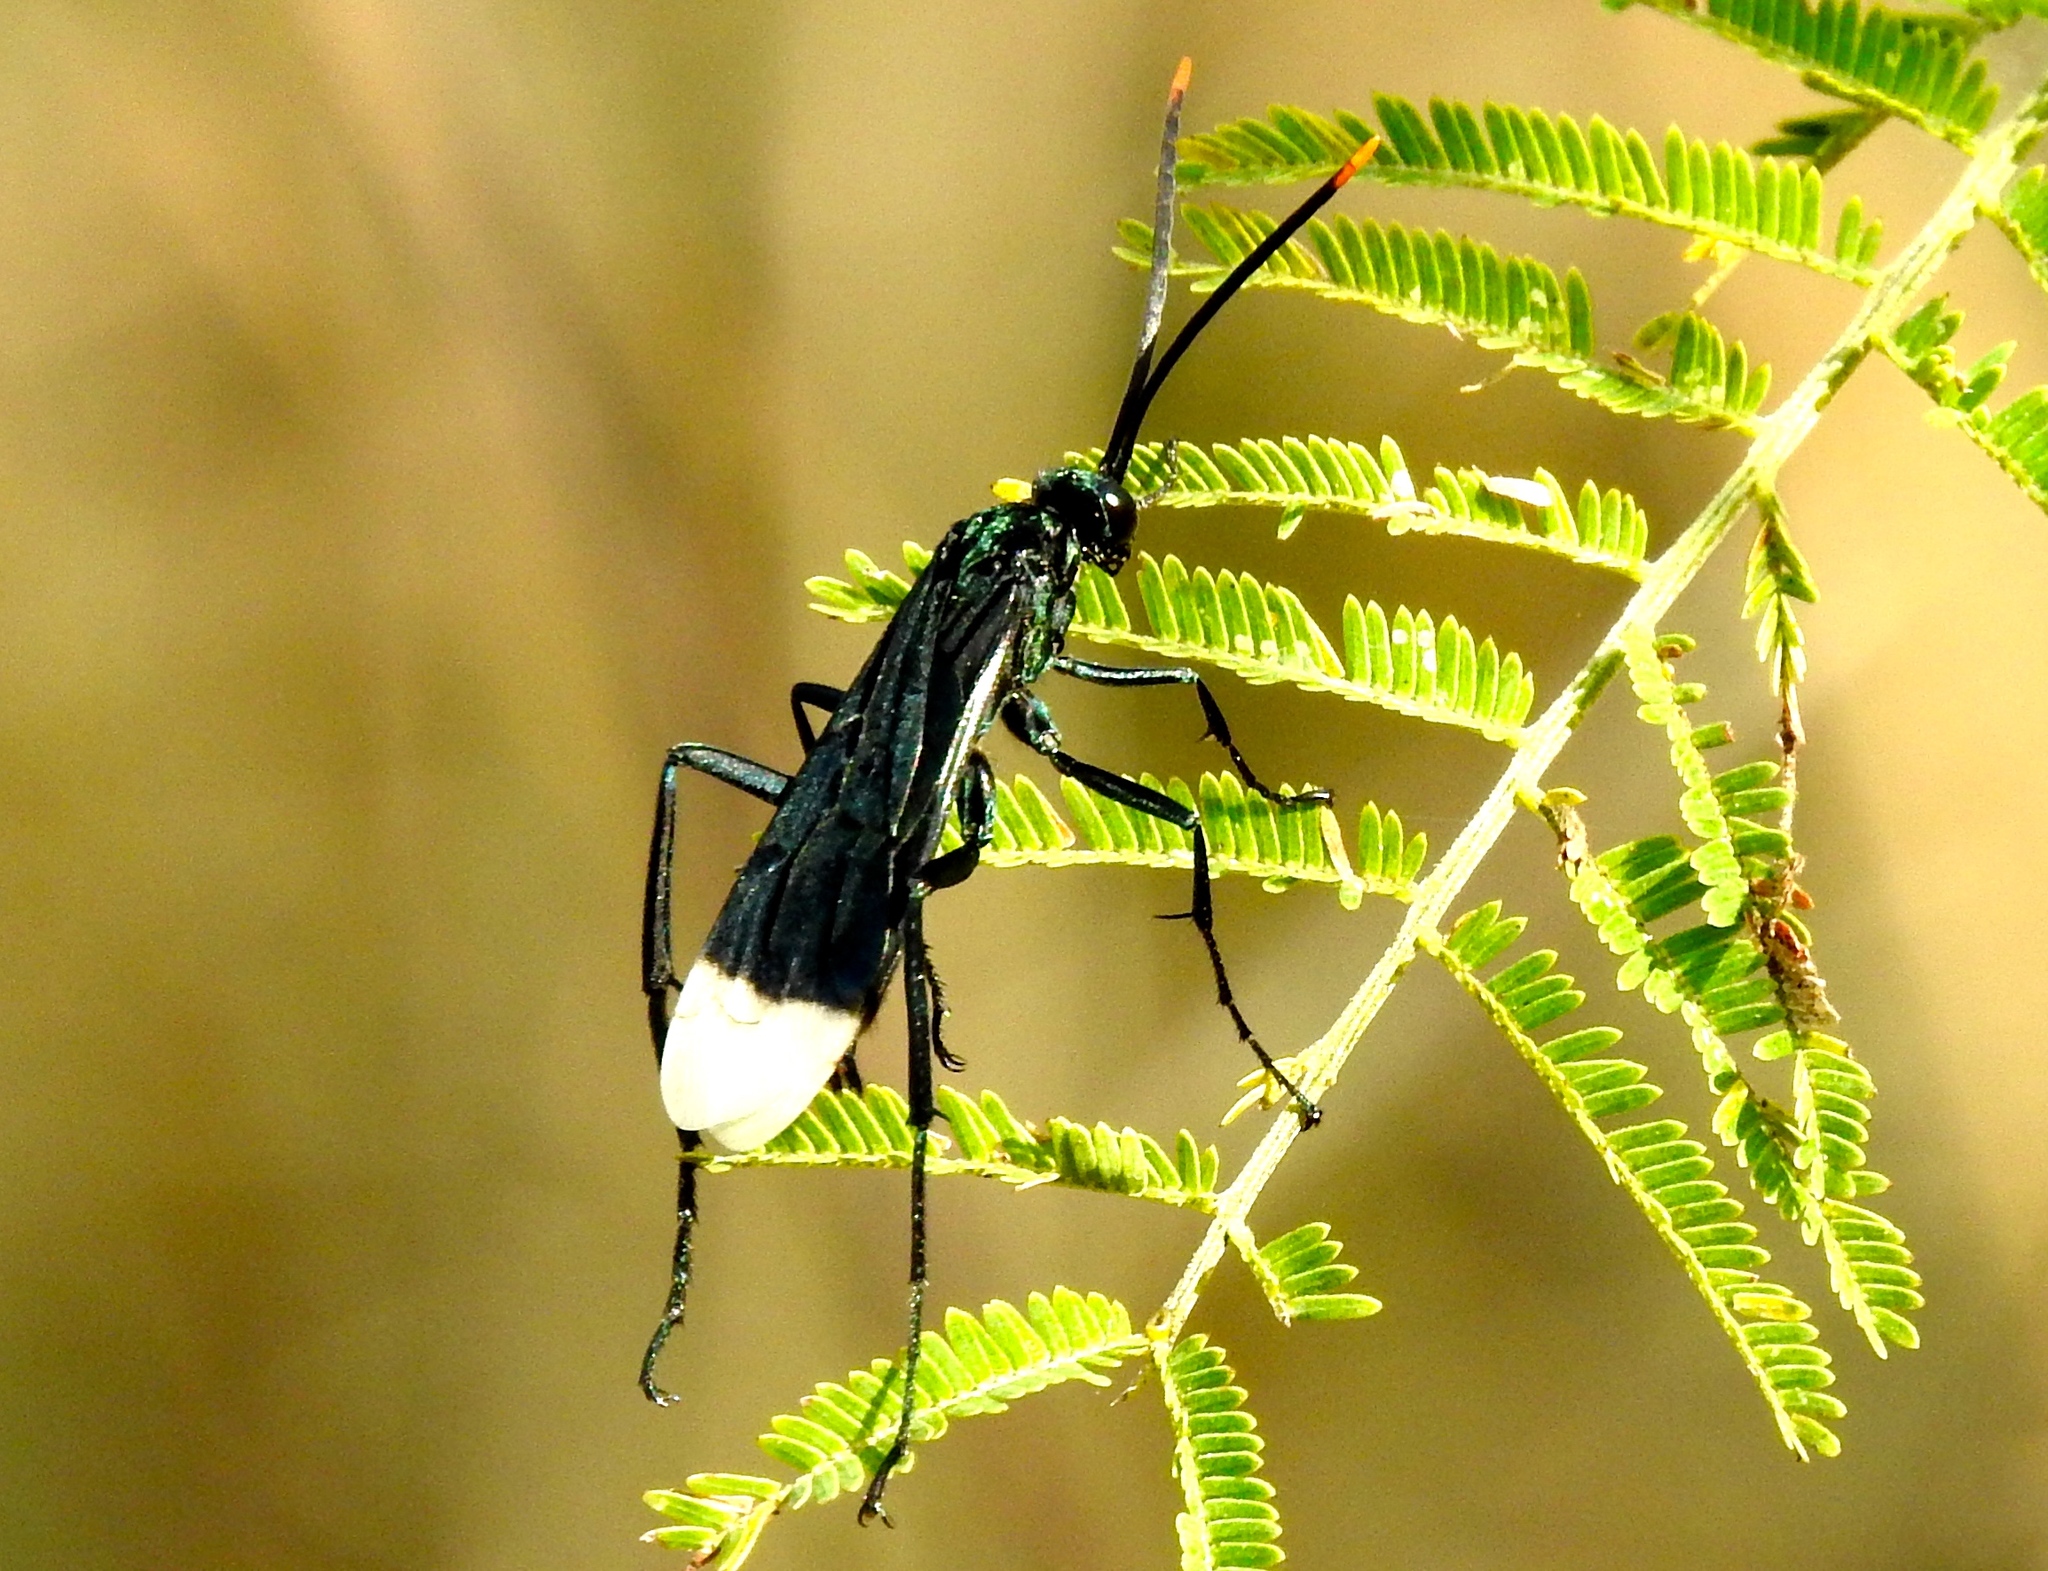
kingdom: Animalia
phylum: Arthropoda
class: Insecta
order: Hymenoptera
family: Pompilidae
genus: Pepsis
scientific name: Pepsis
